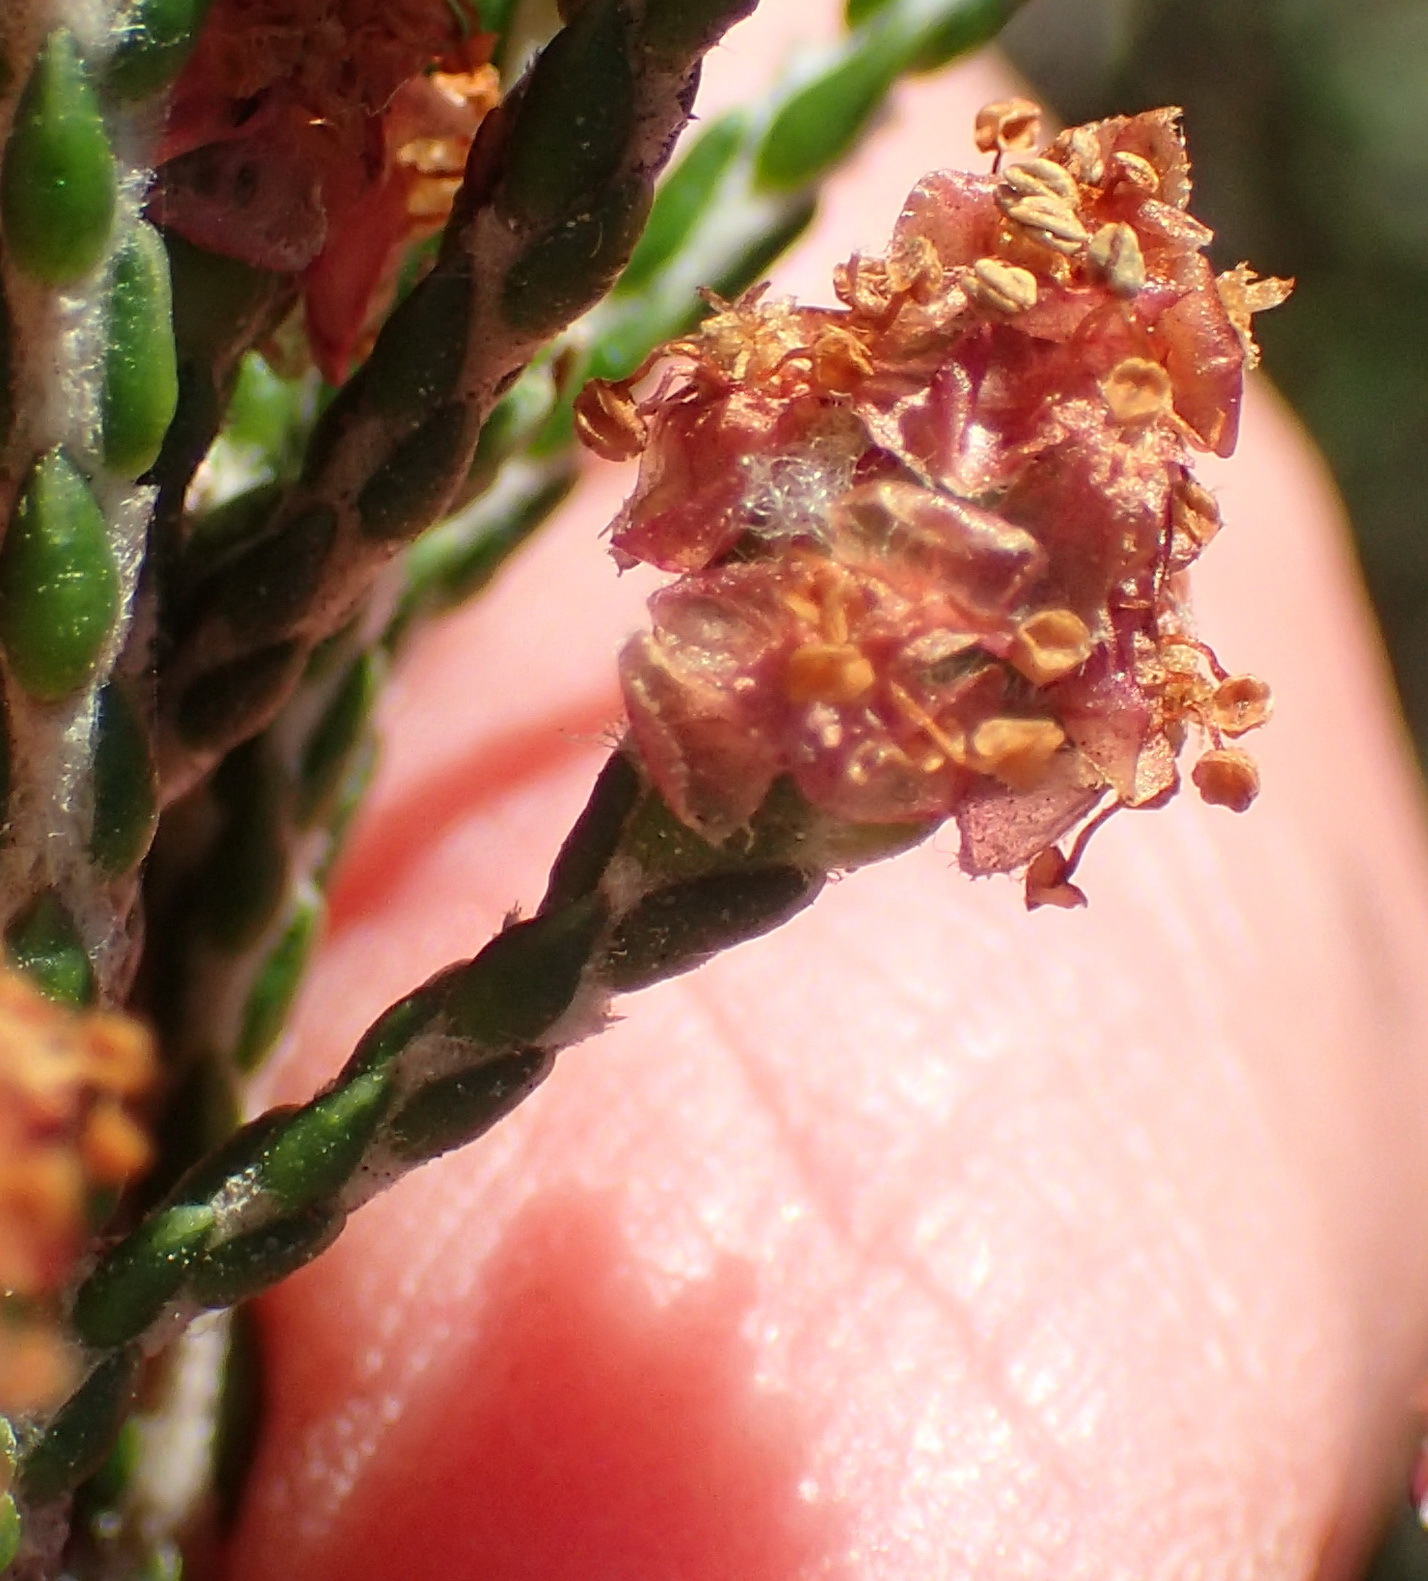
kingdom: Plantae
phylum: Tracheophyta
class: Magnoliopsida
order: Malvales
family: Thymelaeaceae
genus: Passerina
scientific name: Passerina galpinii
